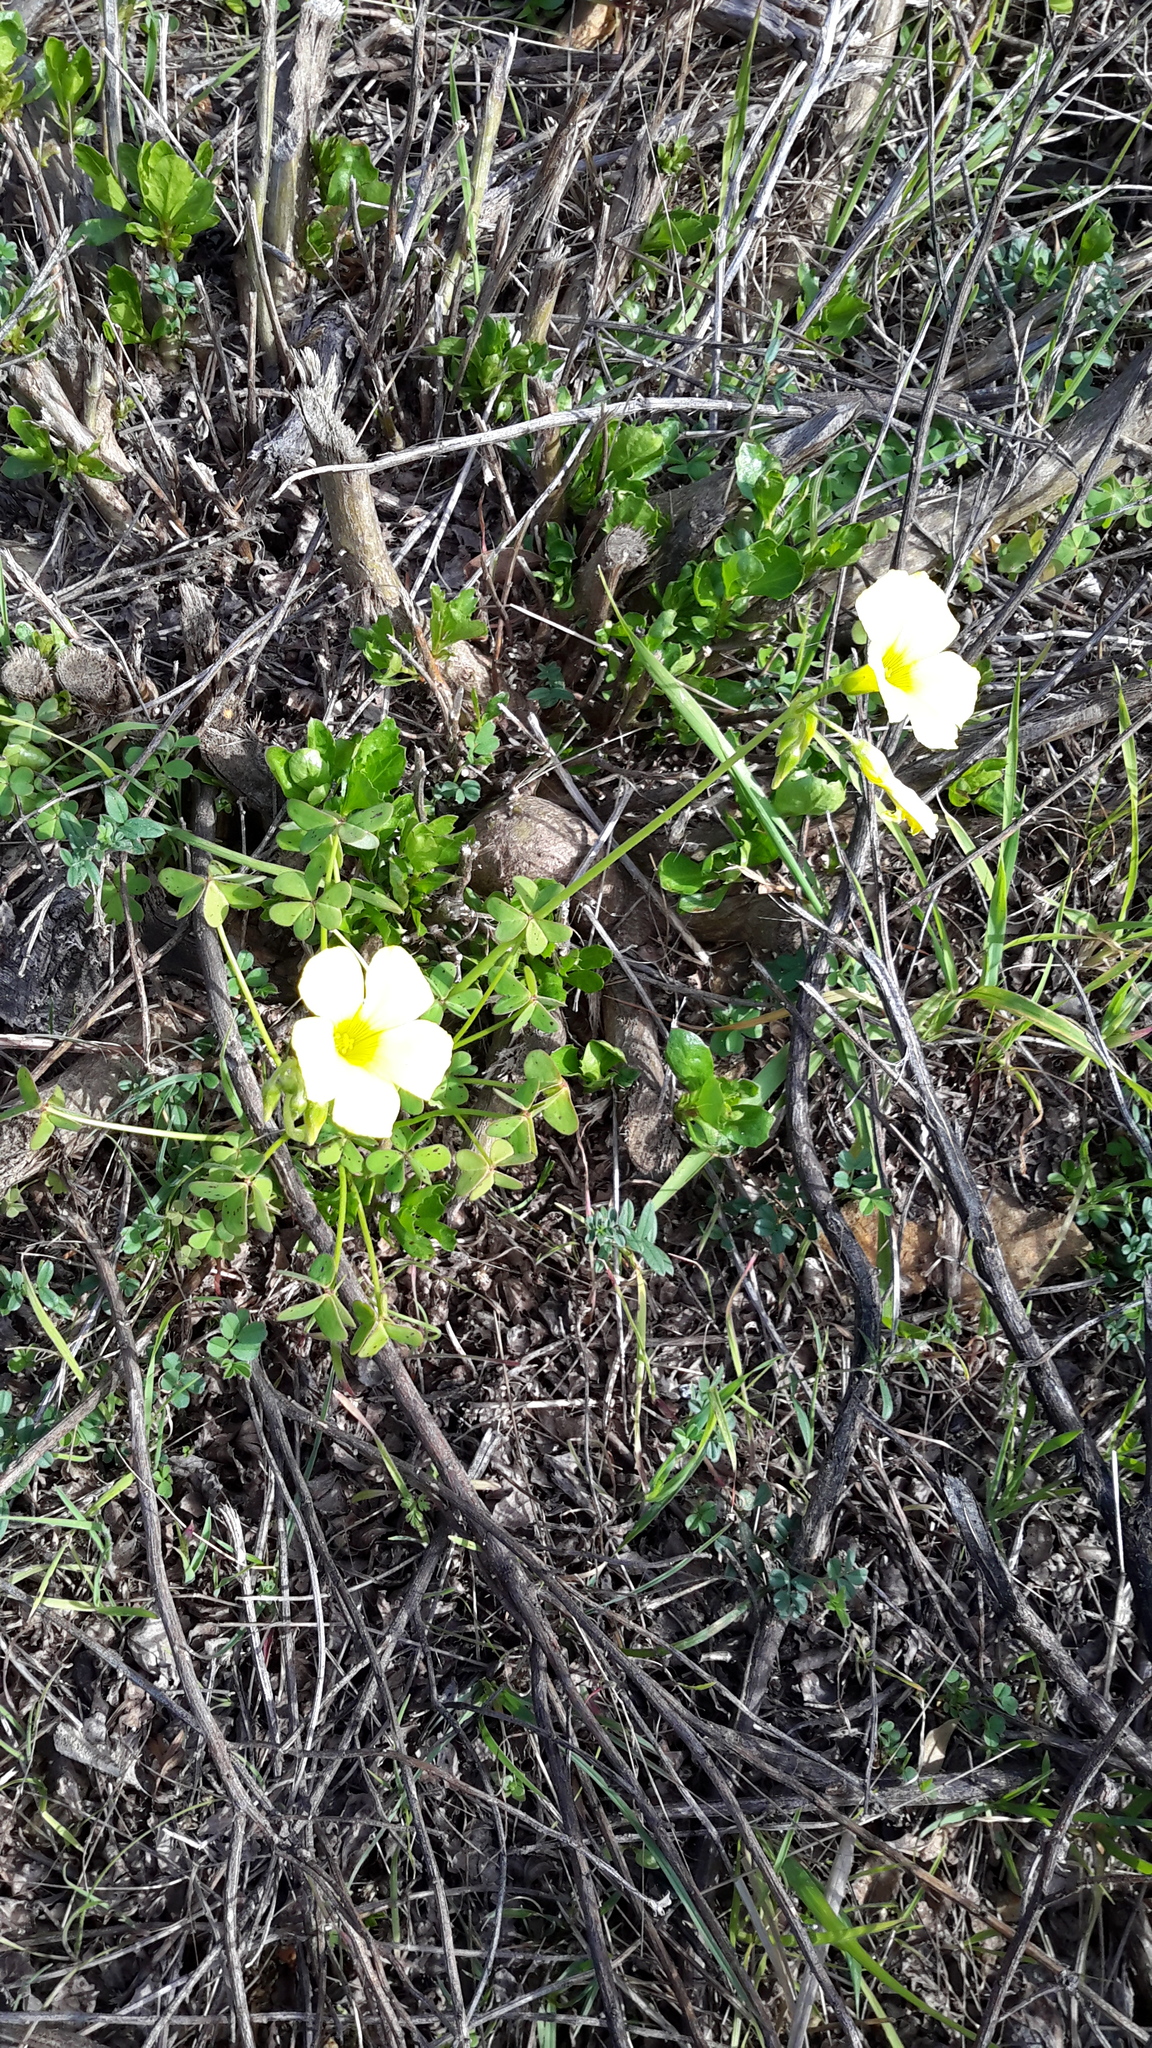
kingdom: Plantae
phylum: Tracheophyta
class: Magnoliopsida
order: Oxalidales
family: Oxalidaceae
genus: Oxalis
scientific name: Oxalis pes-caprae
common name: Bermuda-buttercup
